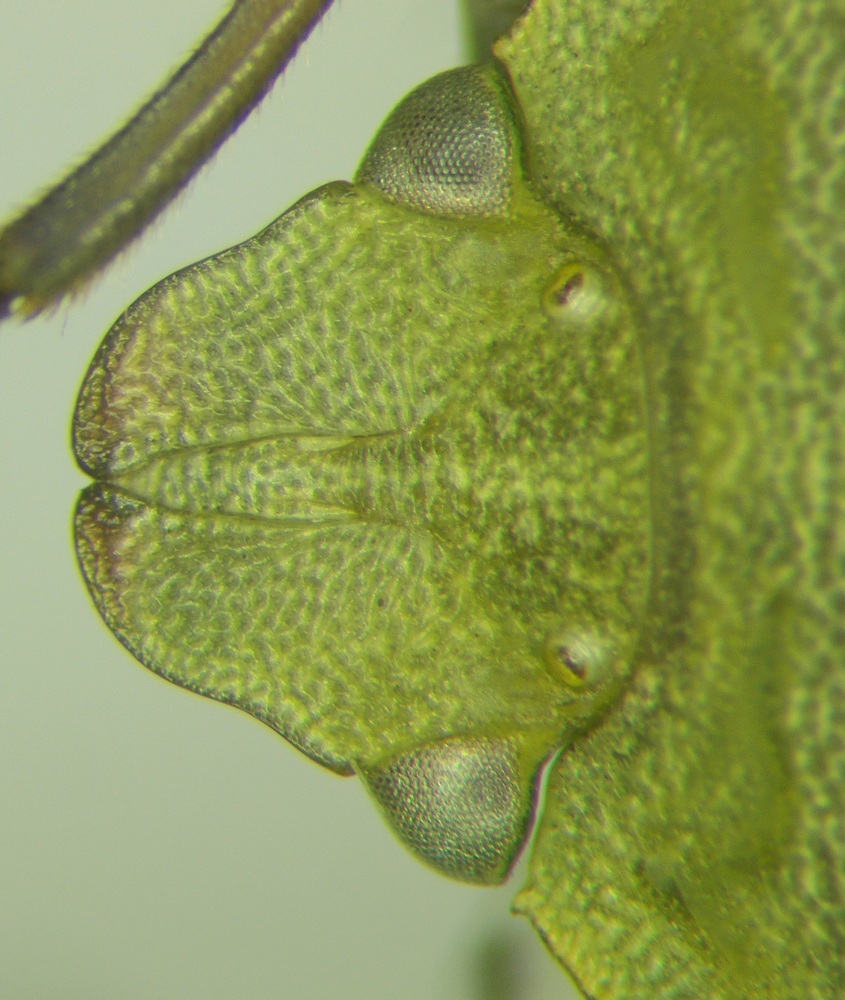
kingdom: Animalia
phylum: Arthropoda
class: Insecta
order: Hemiptera
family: Pentatomidae
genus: Acrosternum
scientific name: Acrosternum
